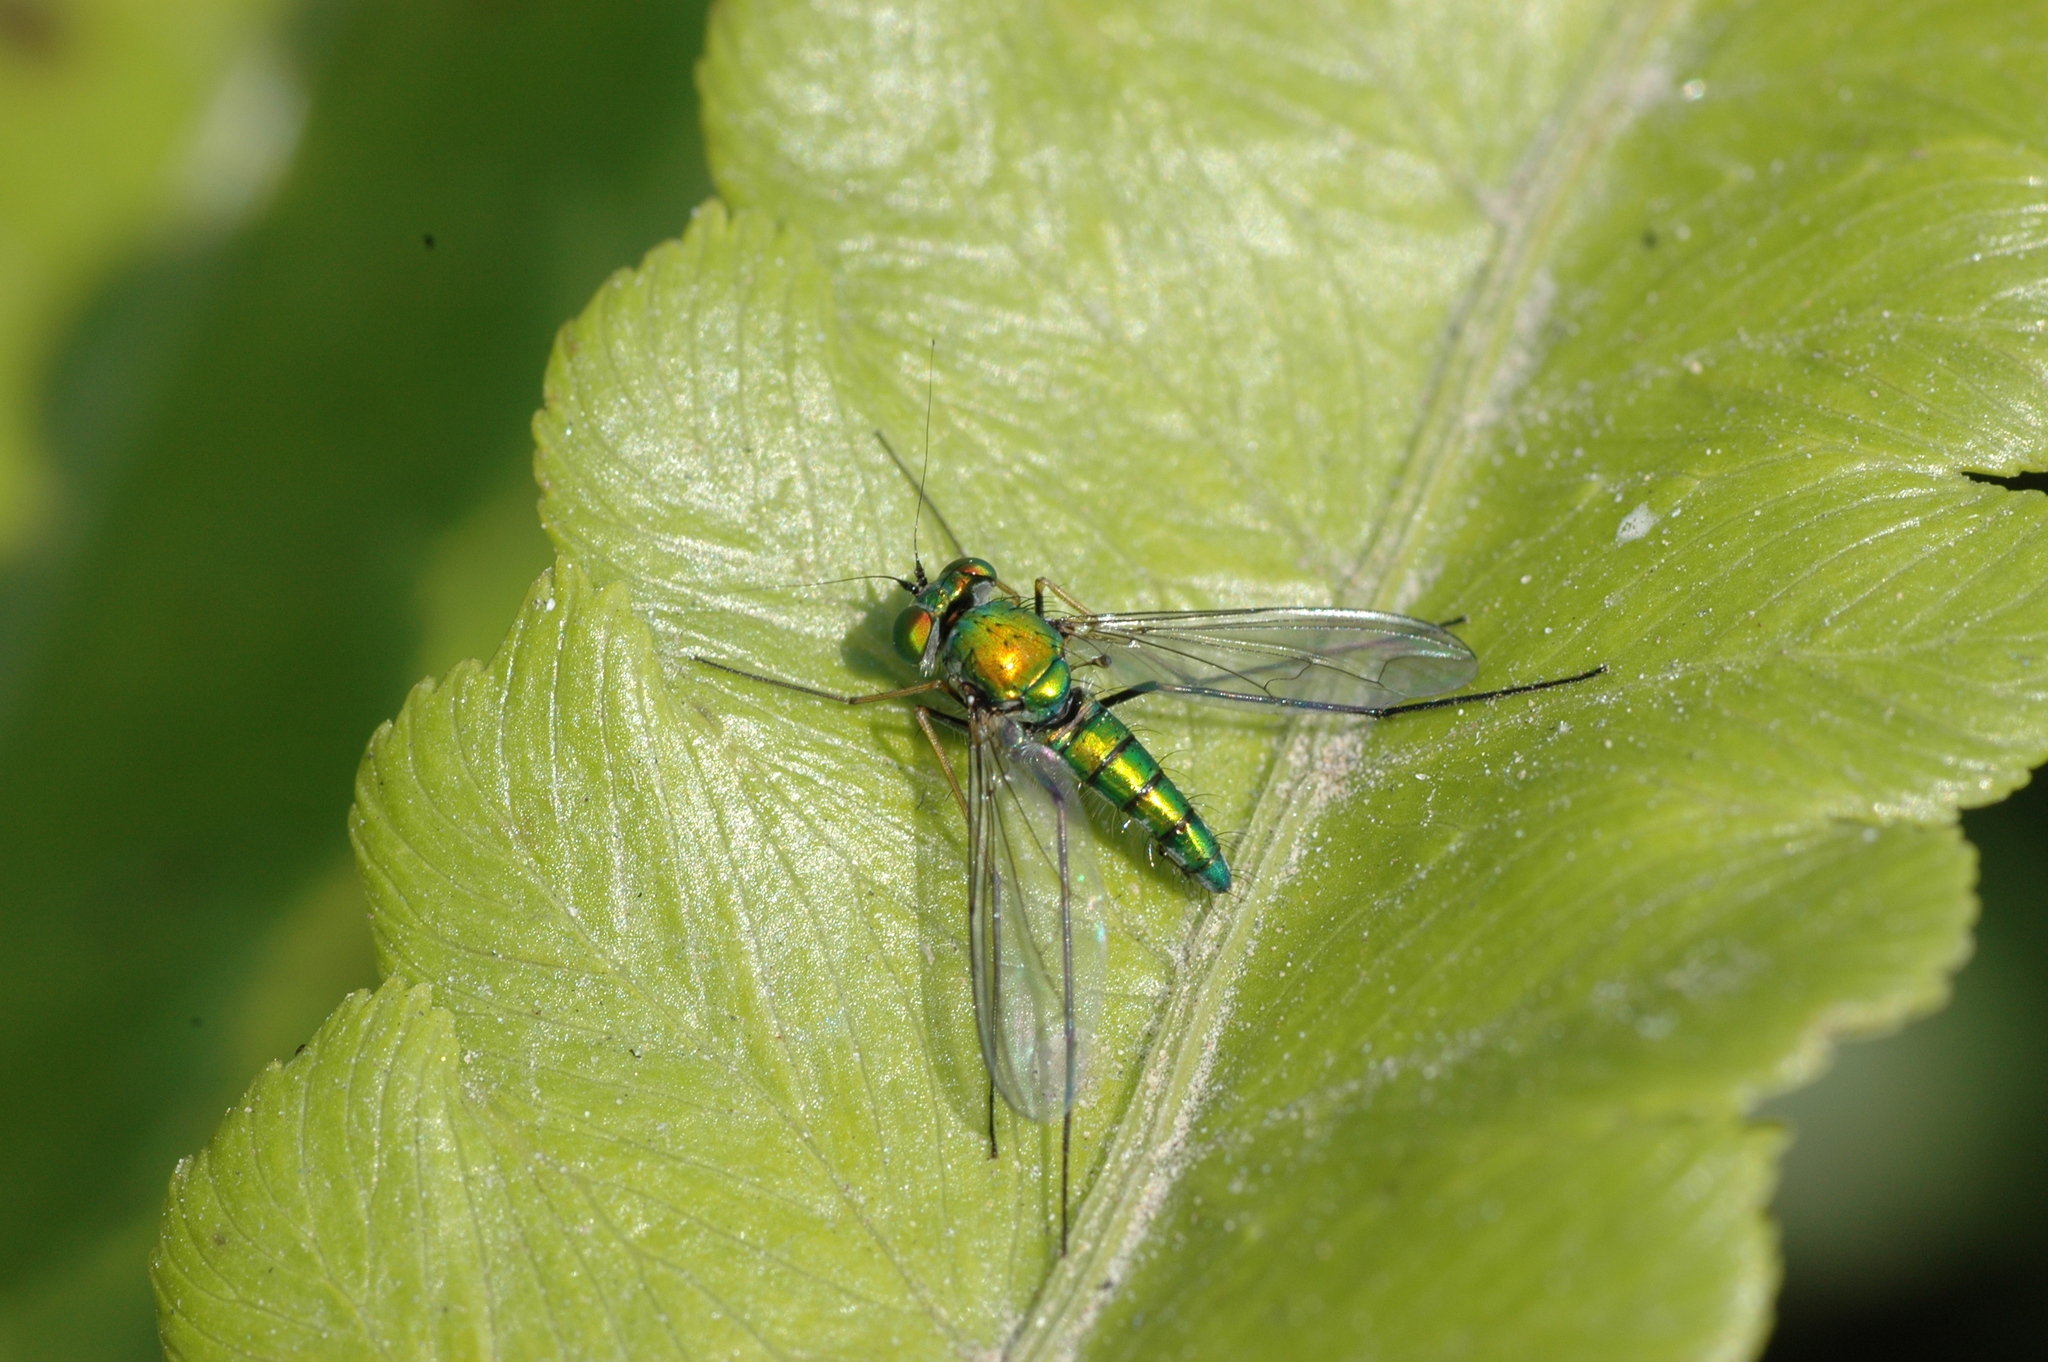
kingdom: Animalia
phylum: Arthropoda
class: Insecta
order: Diptera
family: Dolichopodidae
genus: Chrysosoma
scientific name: Chrysosoma globifer
